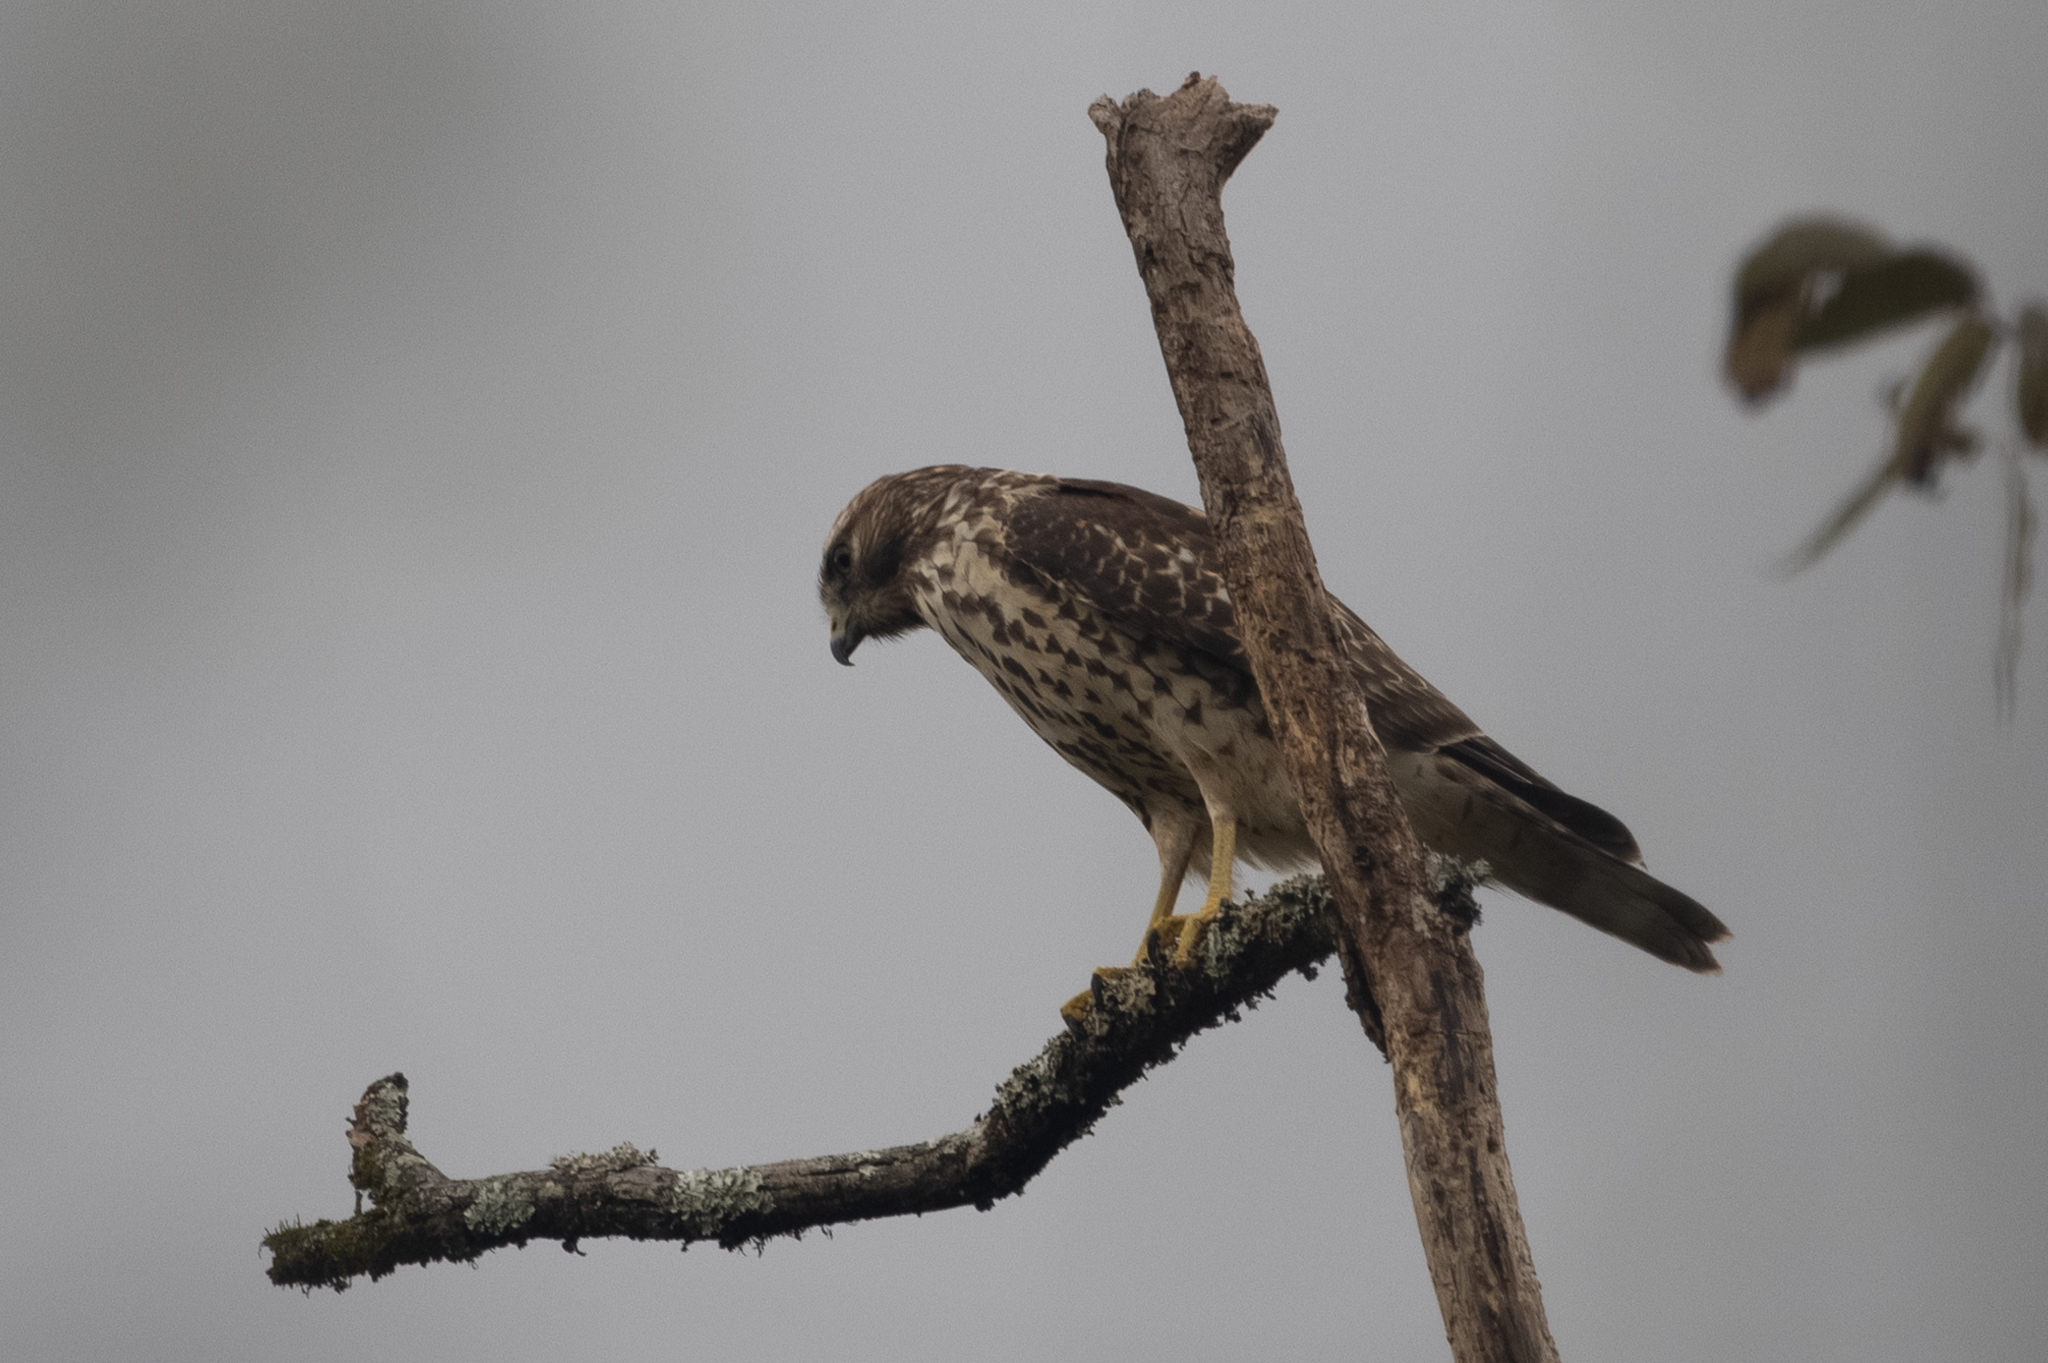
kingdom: Animalia
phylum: Chordata
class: Aves
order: Accipitriformes
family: Accipitridae
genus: Buteo
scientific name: Buteo lineatus
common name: Red-shouldered hawk
